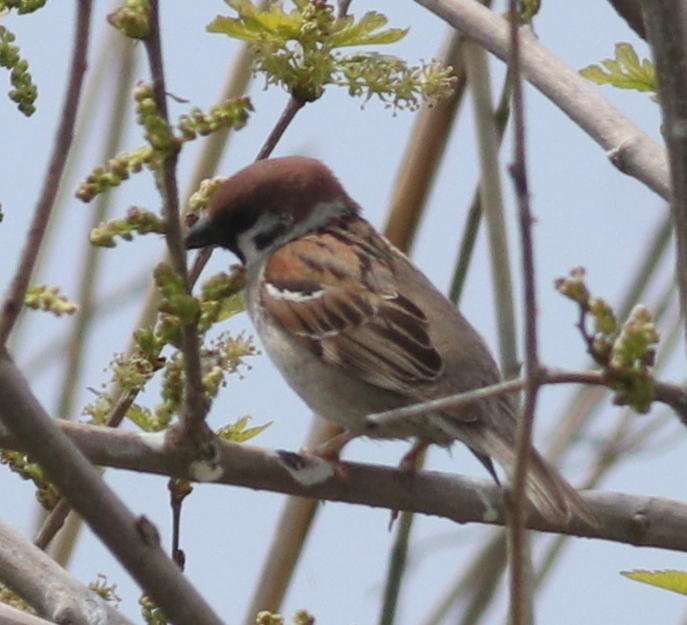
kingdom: Animalia
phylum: Chordata
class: Aves
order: Passeriformes
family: Passeridae
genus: Passer
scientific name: Passer montanus
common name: Eurasian tree sparrow
